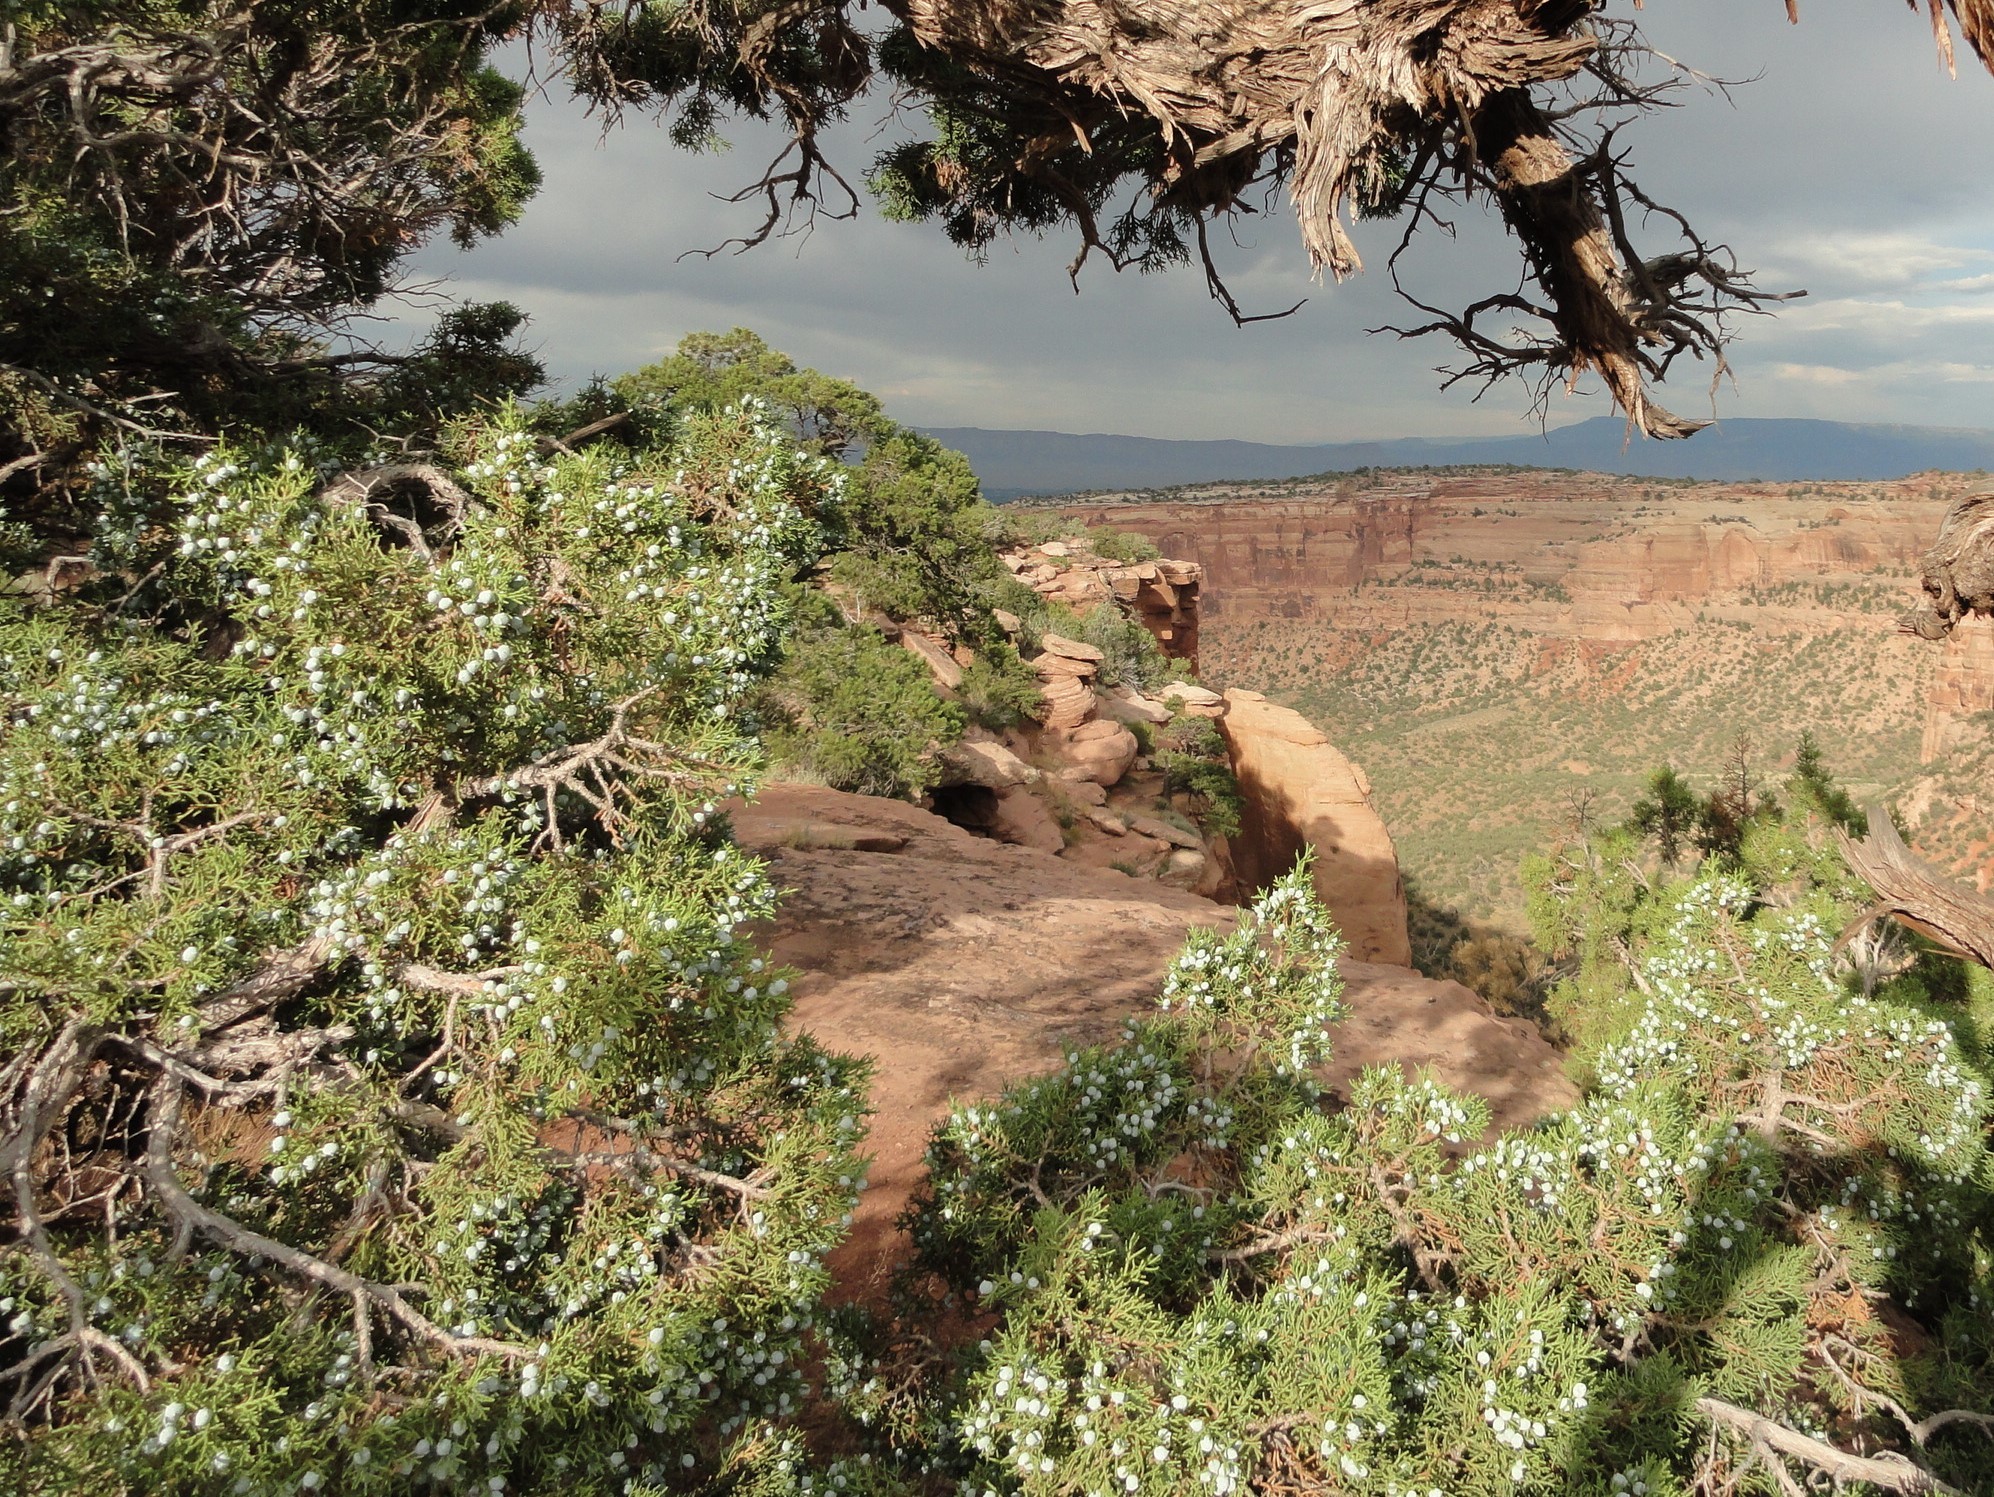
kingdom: Plantae
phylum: Tracheophyta
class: Pinopsida
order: Pinales
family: Cupressaceae
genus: Juniperus
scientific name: Juniperus osteosperma
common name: Utah juniper
